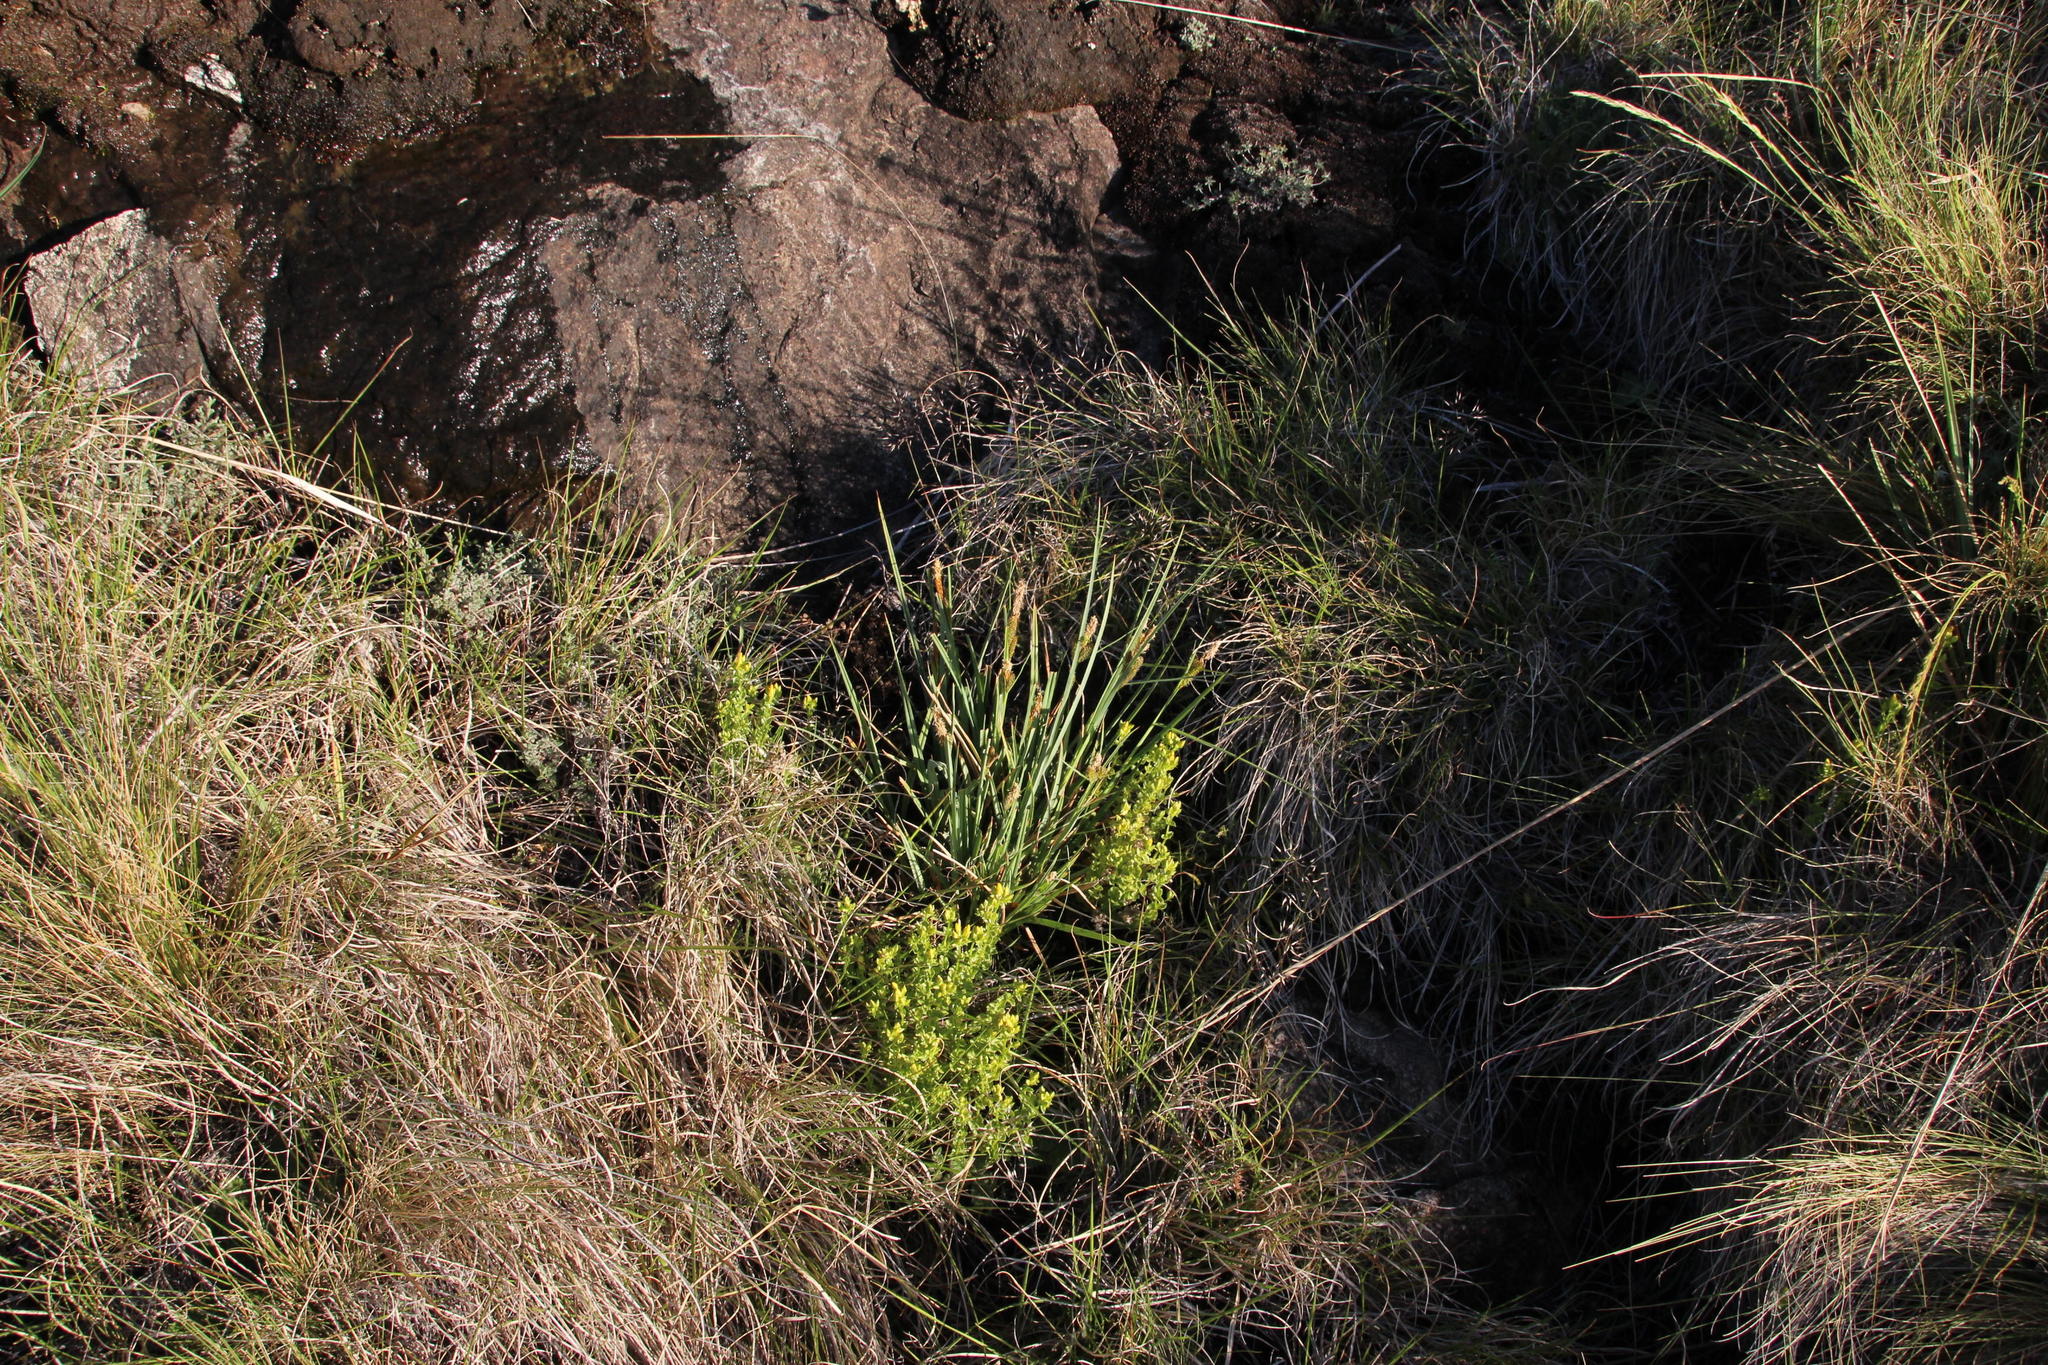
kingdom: Plantae
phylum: Tracheophyta
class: Liliopsida
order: Poales
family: Cyperaceae
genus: Carex
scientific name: Carex clavata
